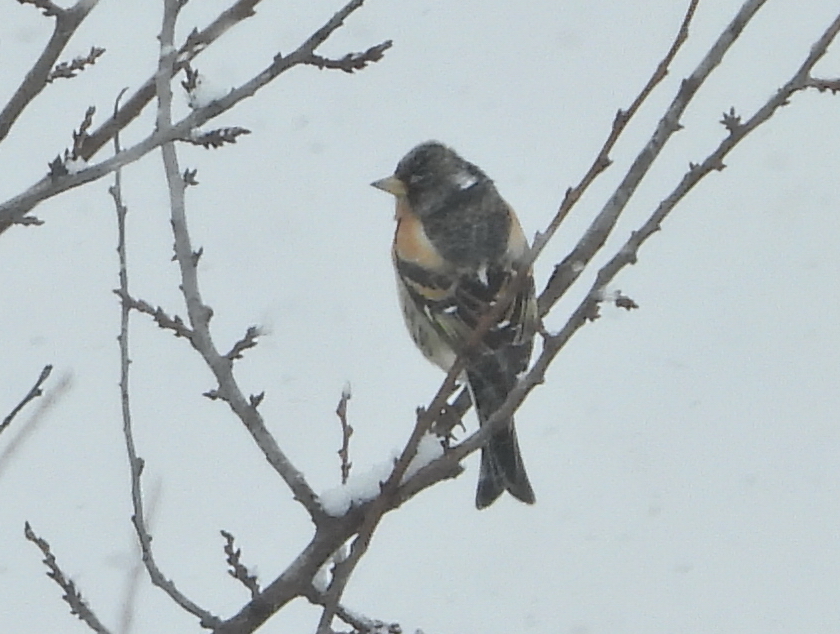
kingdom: Animalia
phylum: Chordata
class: Aves
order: Passeriformes
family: Fringillidae
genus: Fringilla
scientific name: Fringilla montifringilla
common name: Brambling
